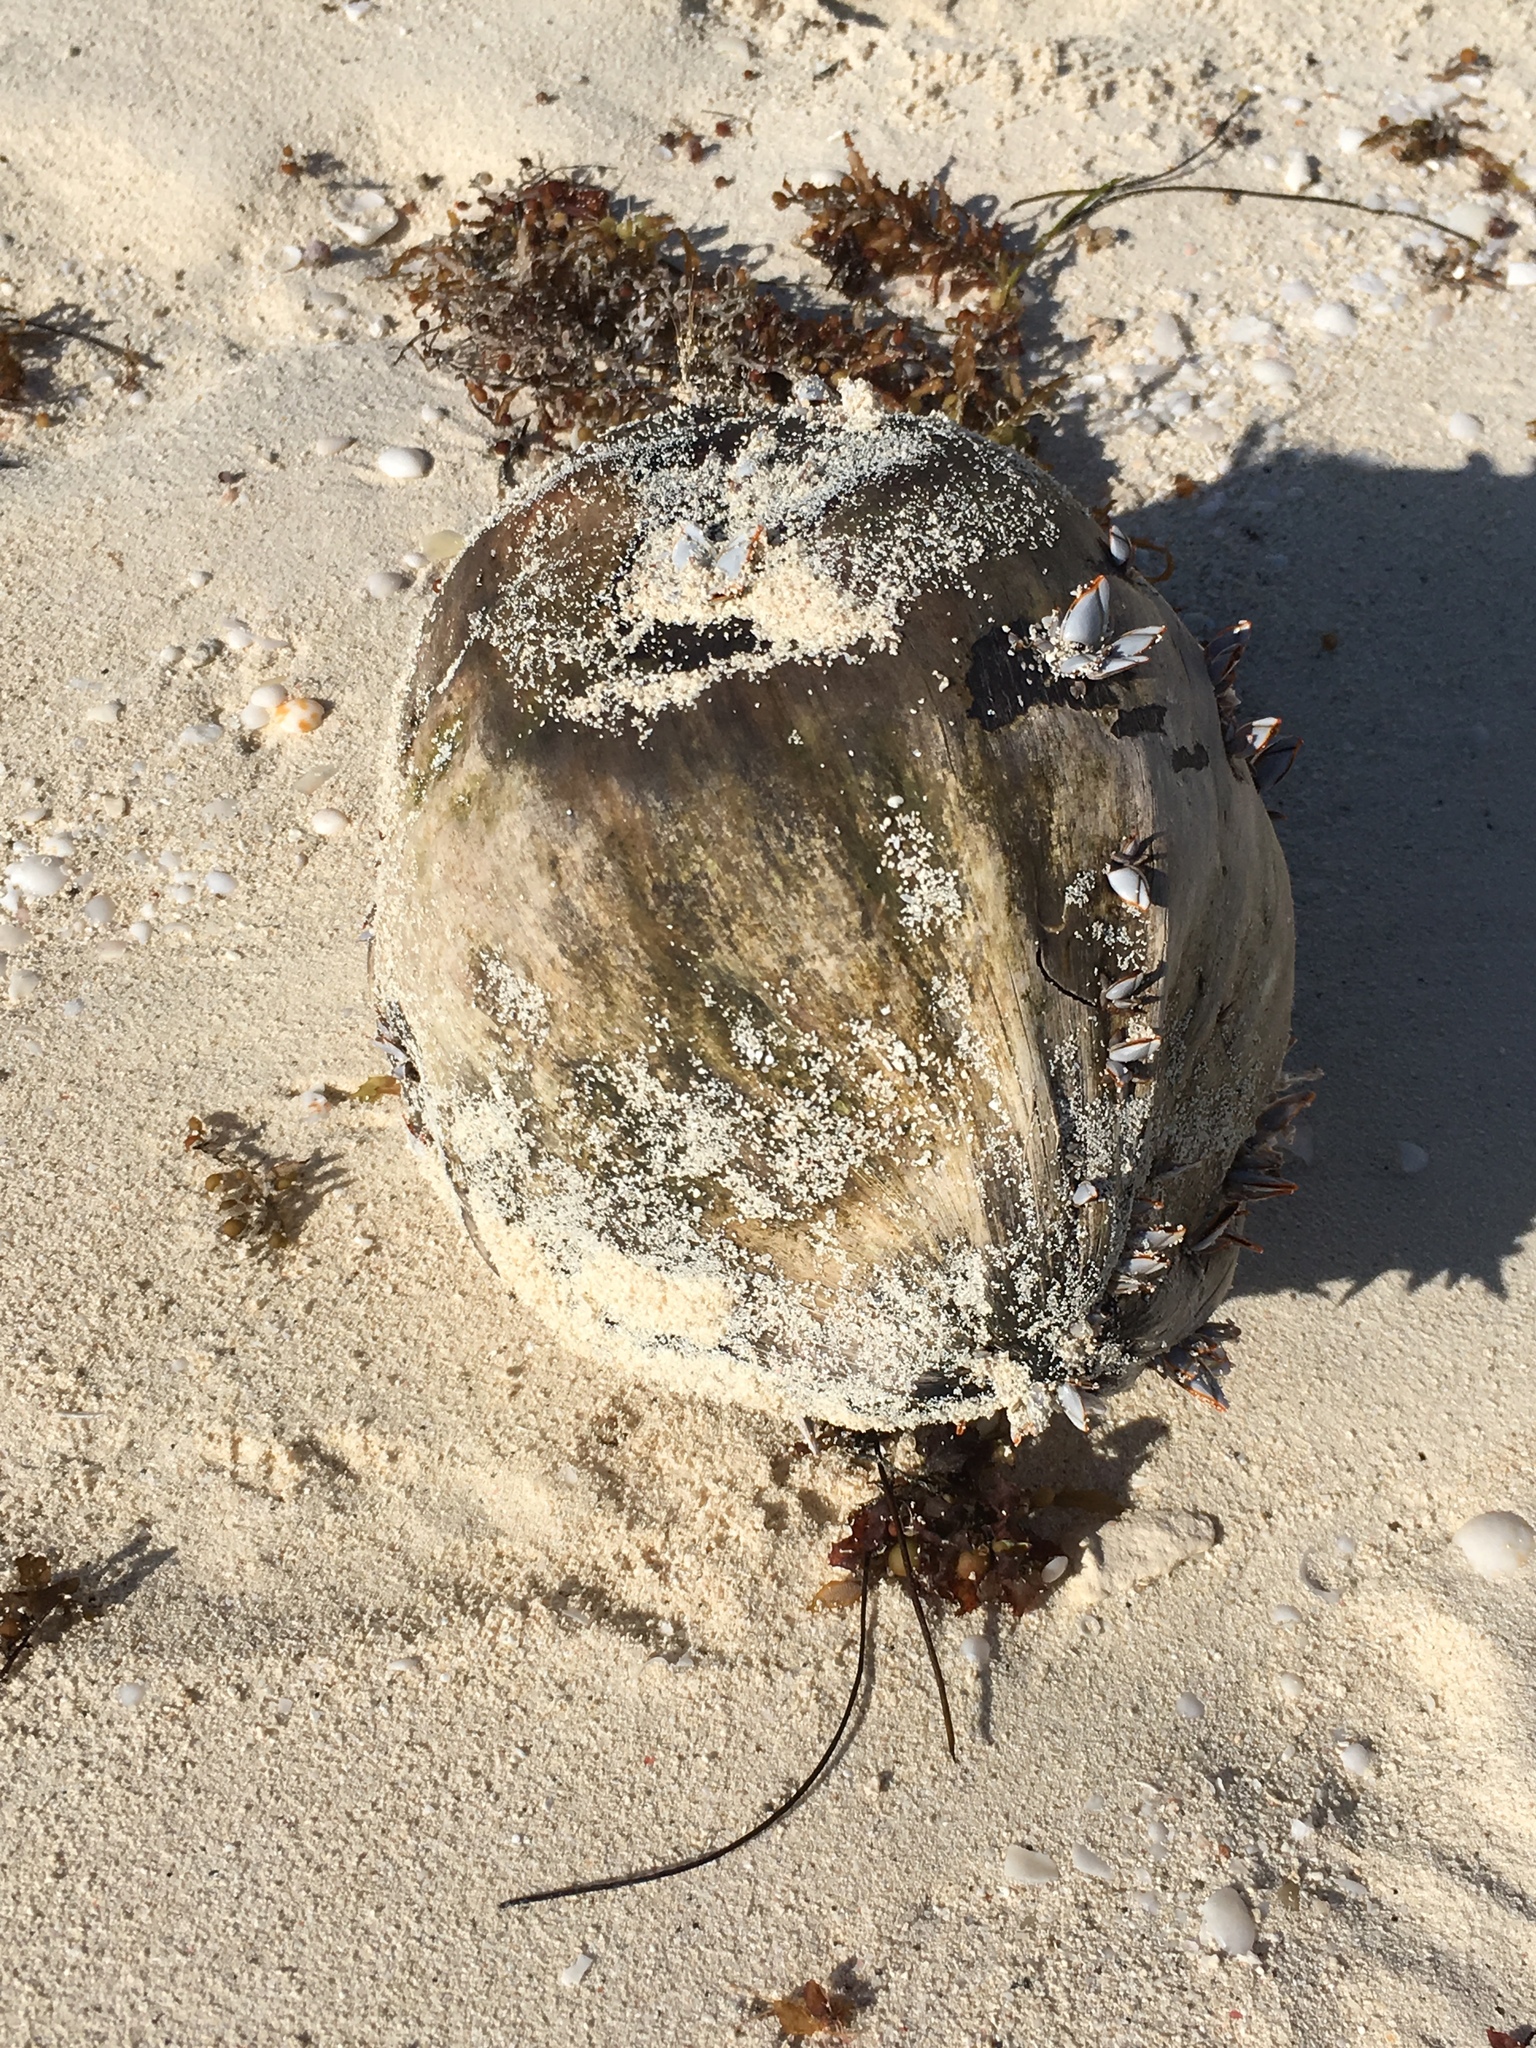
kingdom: Plantae
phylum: Tracheophyta
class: Liliopsida
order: Arecales
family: Arecaceae
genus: Cocos
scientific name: Cocos nucifera
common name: Coconut palm
